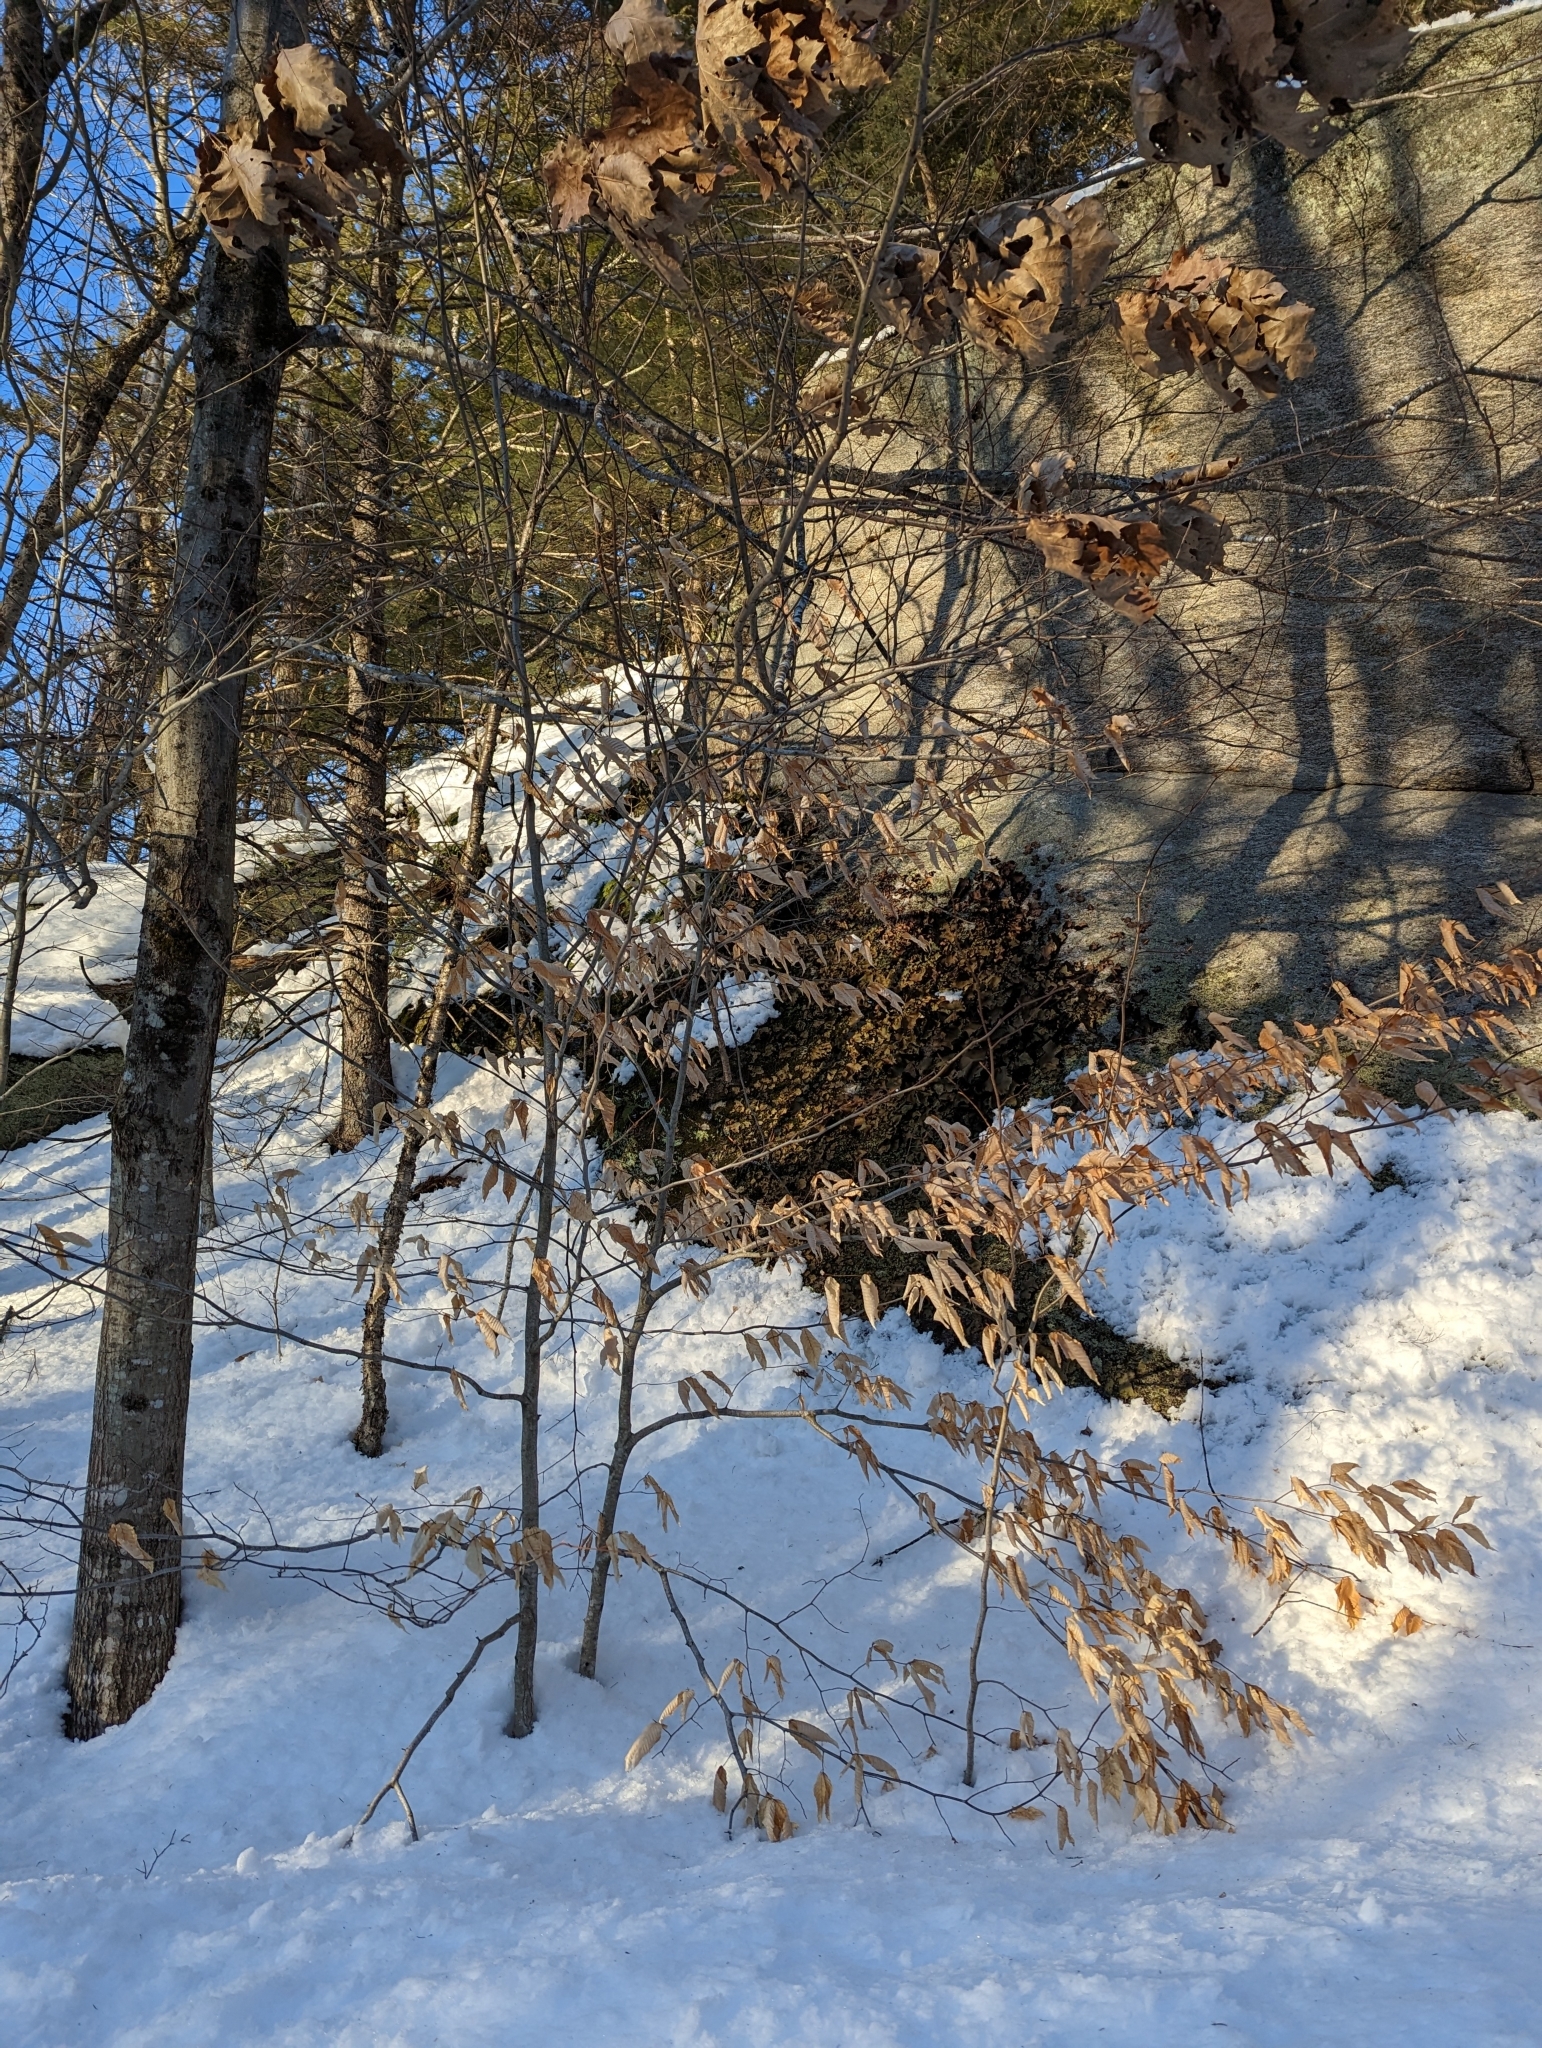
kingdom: Plantae
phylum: Tracheophyta
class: Magnoliopsida
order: Fagales
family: Fagaceae
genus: Fagus
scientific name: Fagus grandifolia
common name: American beech
